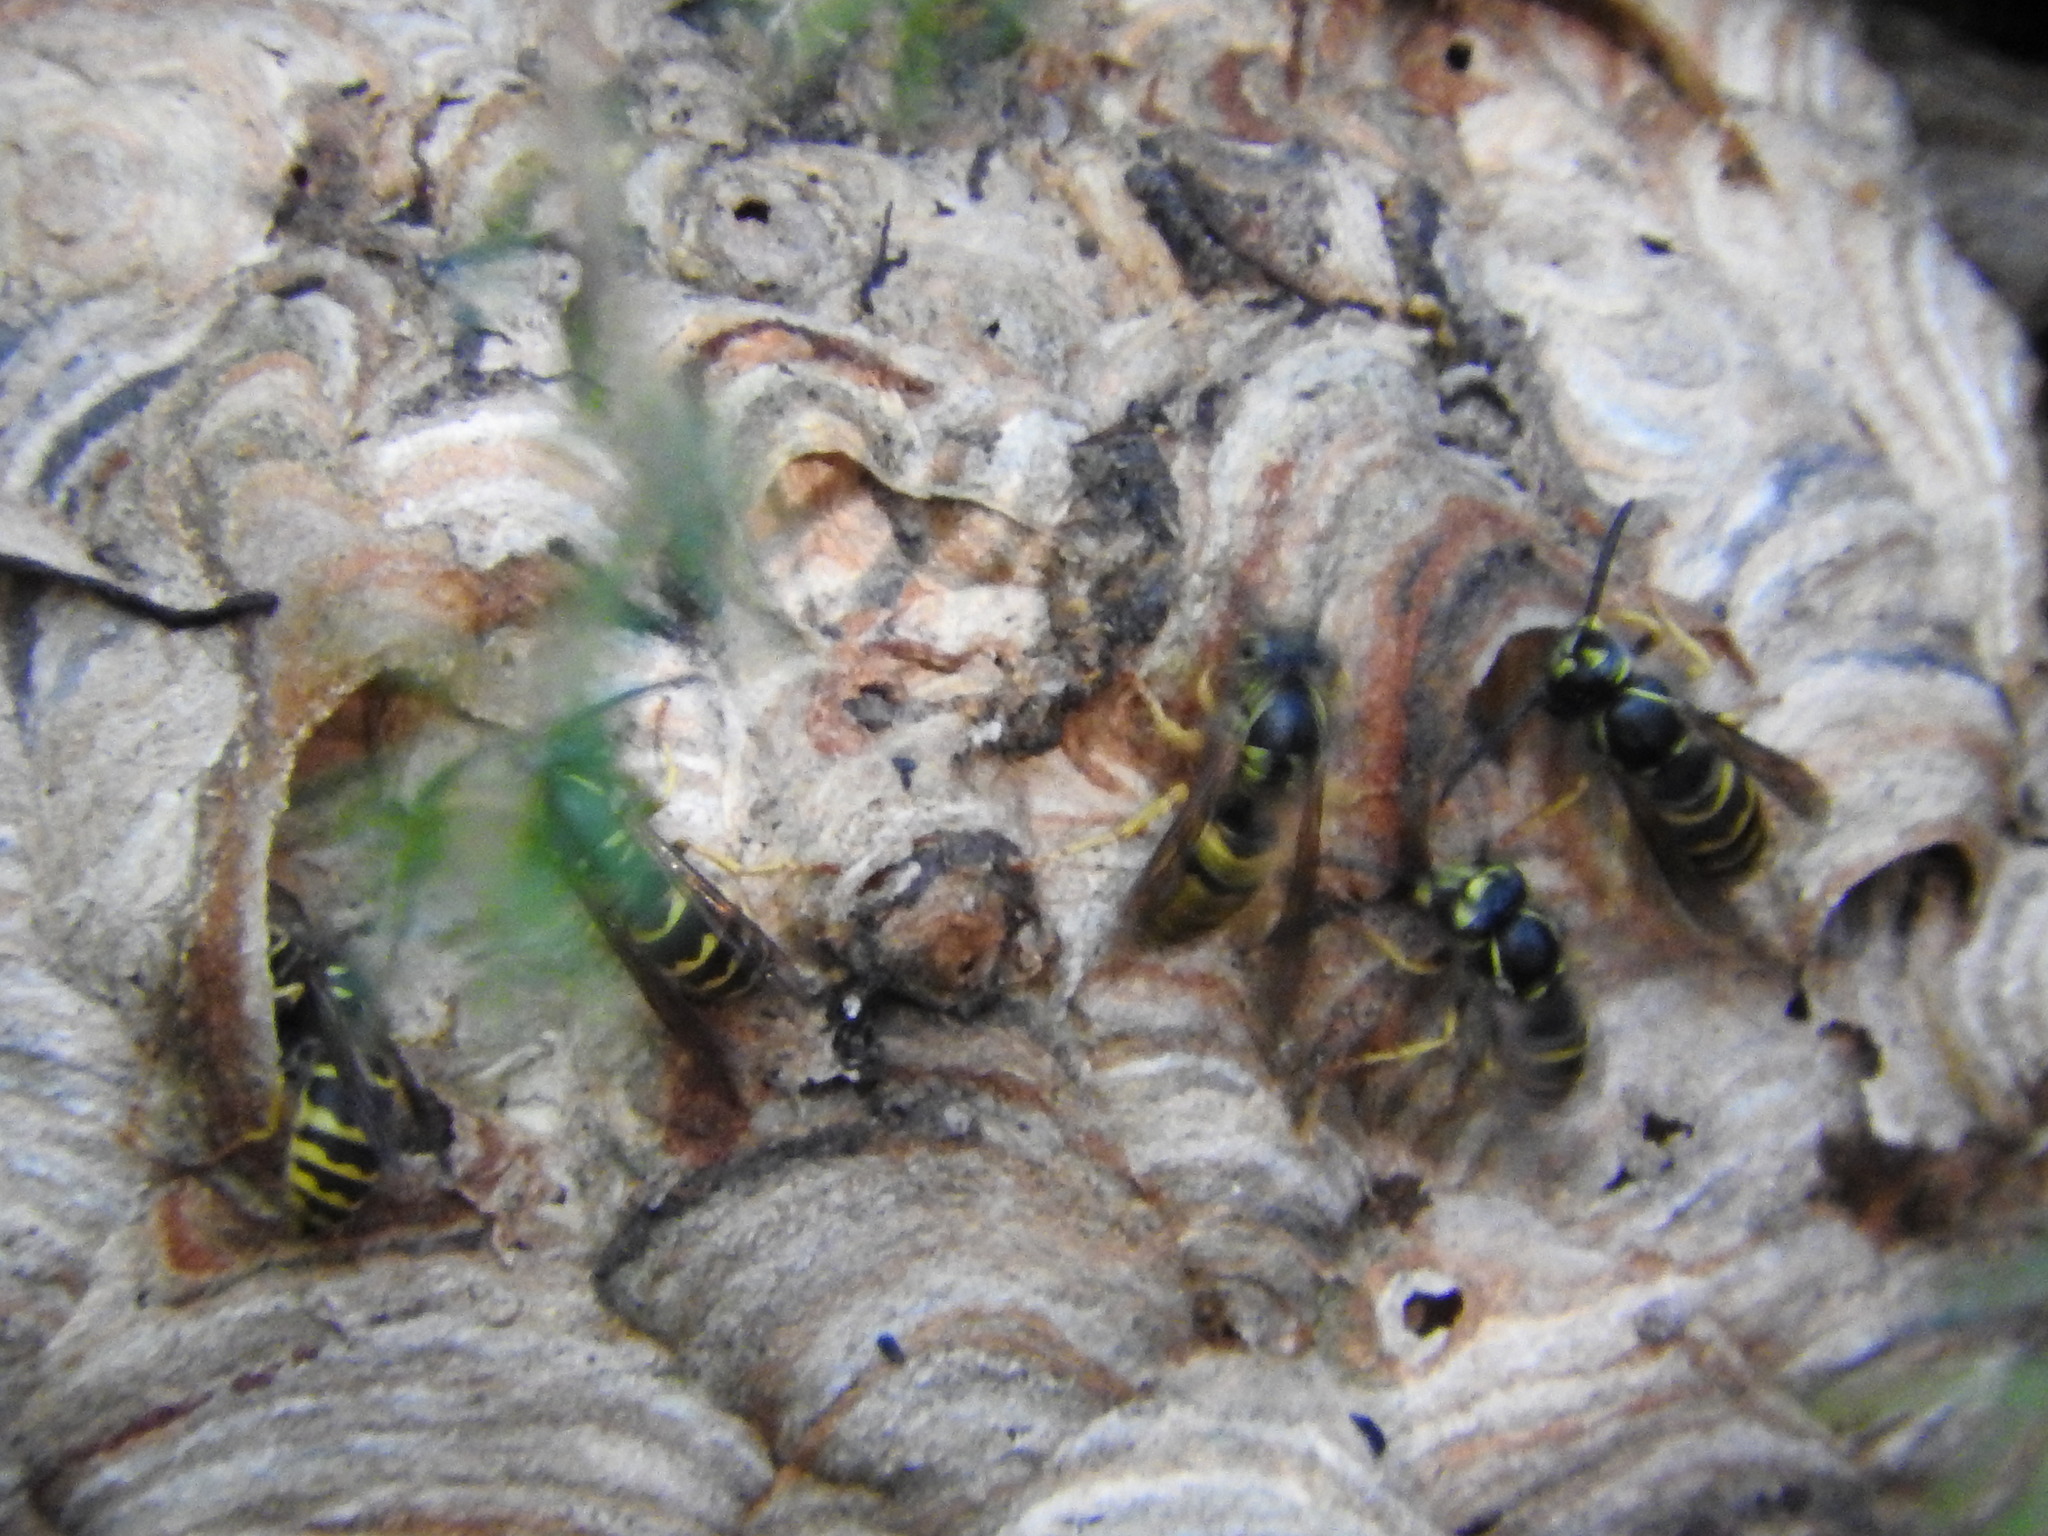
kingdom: Animalia
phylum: Arthropoda
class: Insecta
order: Hymenoptera
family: Vespidae
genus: Vespula
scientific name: Vespula alascensis
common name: Alaska yellowjacket
